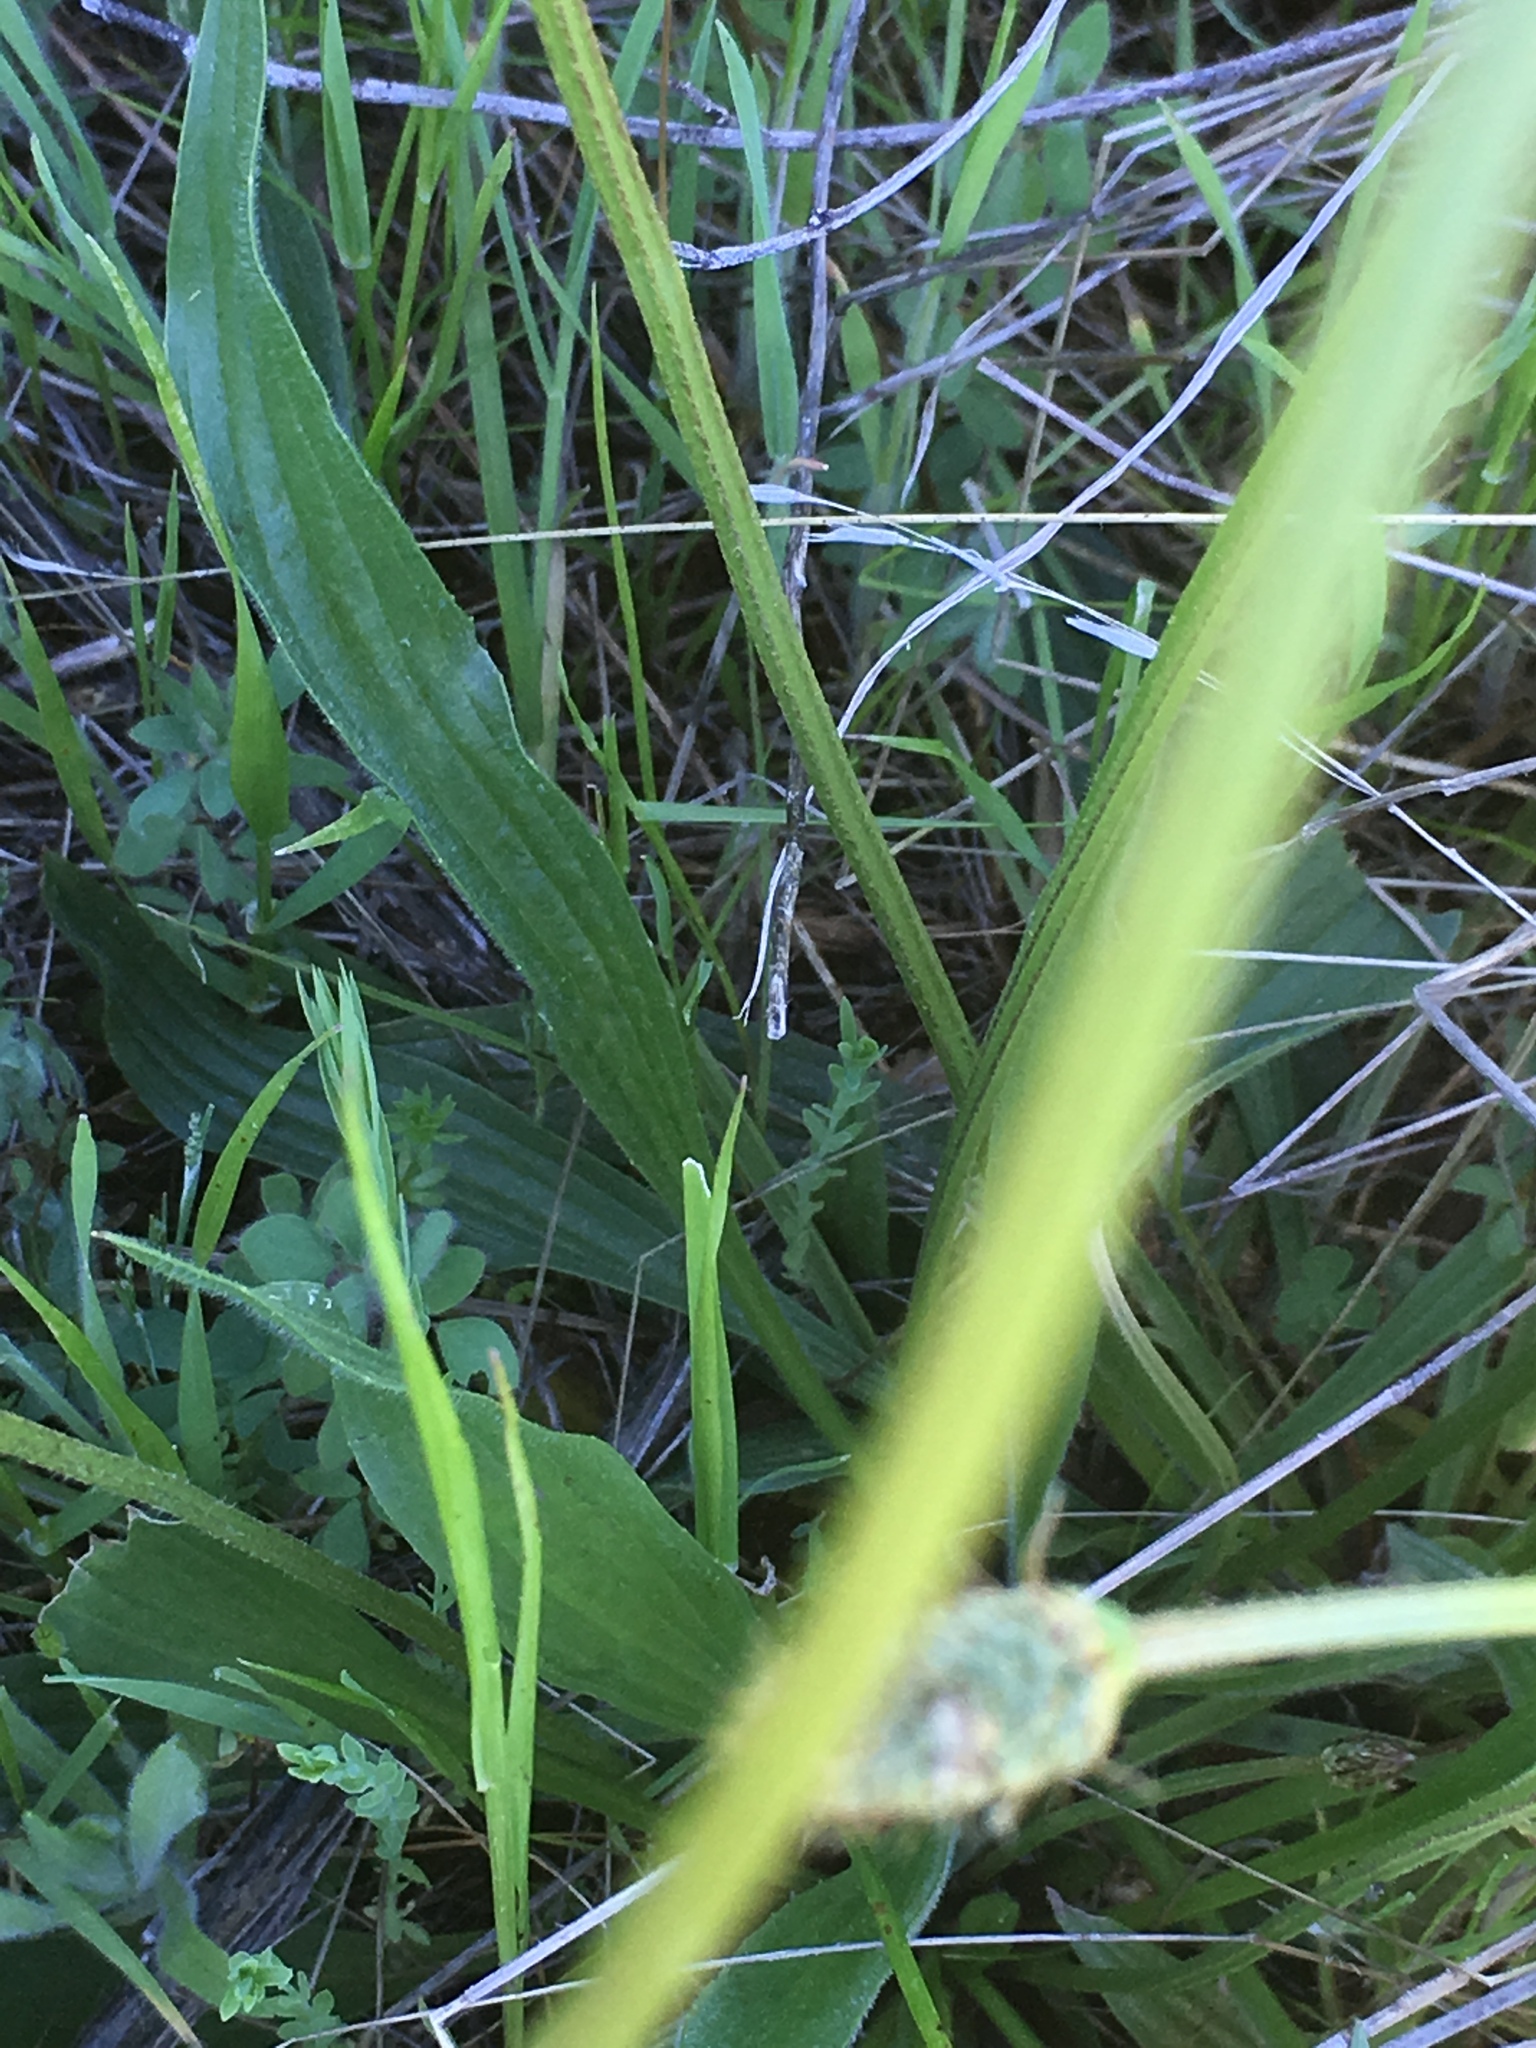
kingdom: Plantae
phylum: Tracheophyta
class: Magnoliopsida
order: Lamiales
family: Plantaginaceae
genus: Plantago
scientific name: Plantago lanceolata
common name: Ribwort plantain
